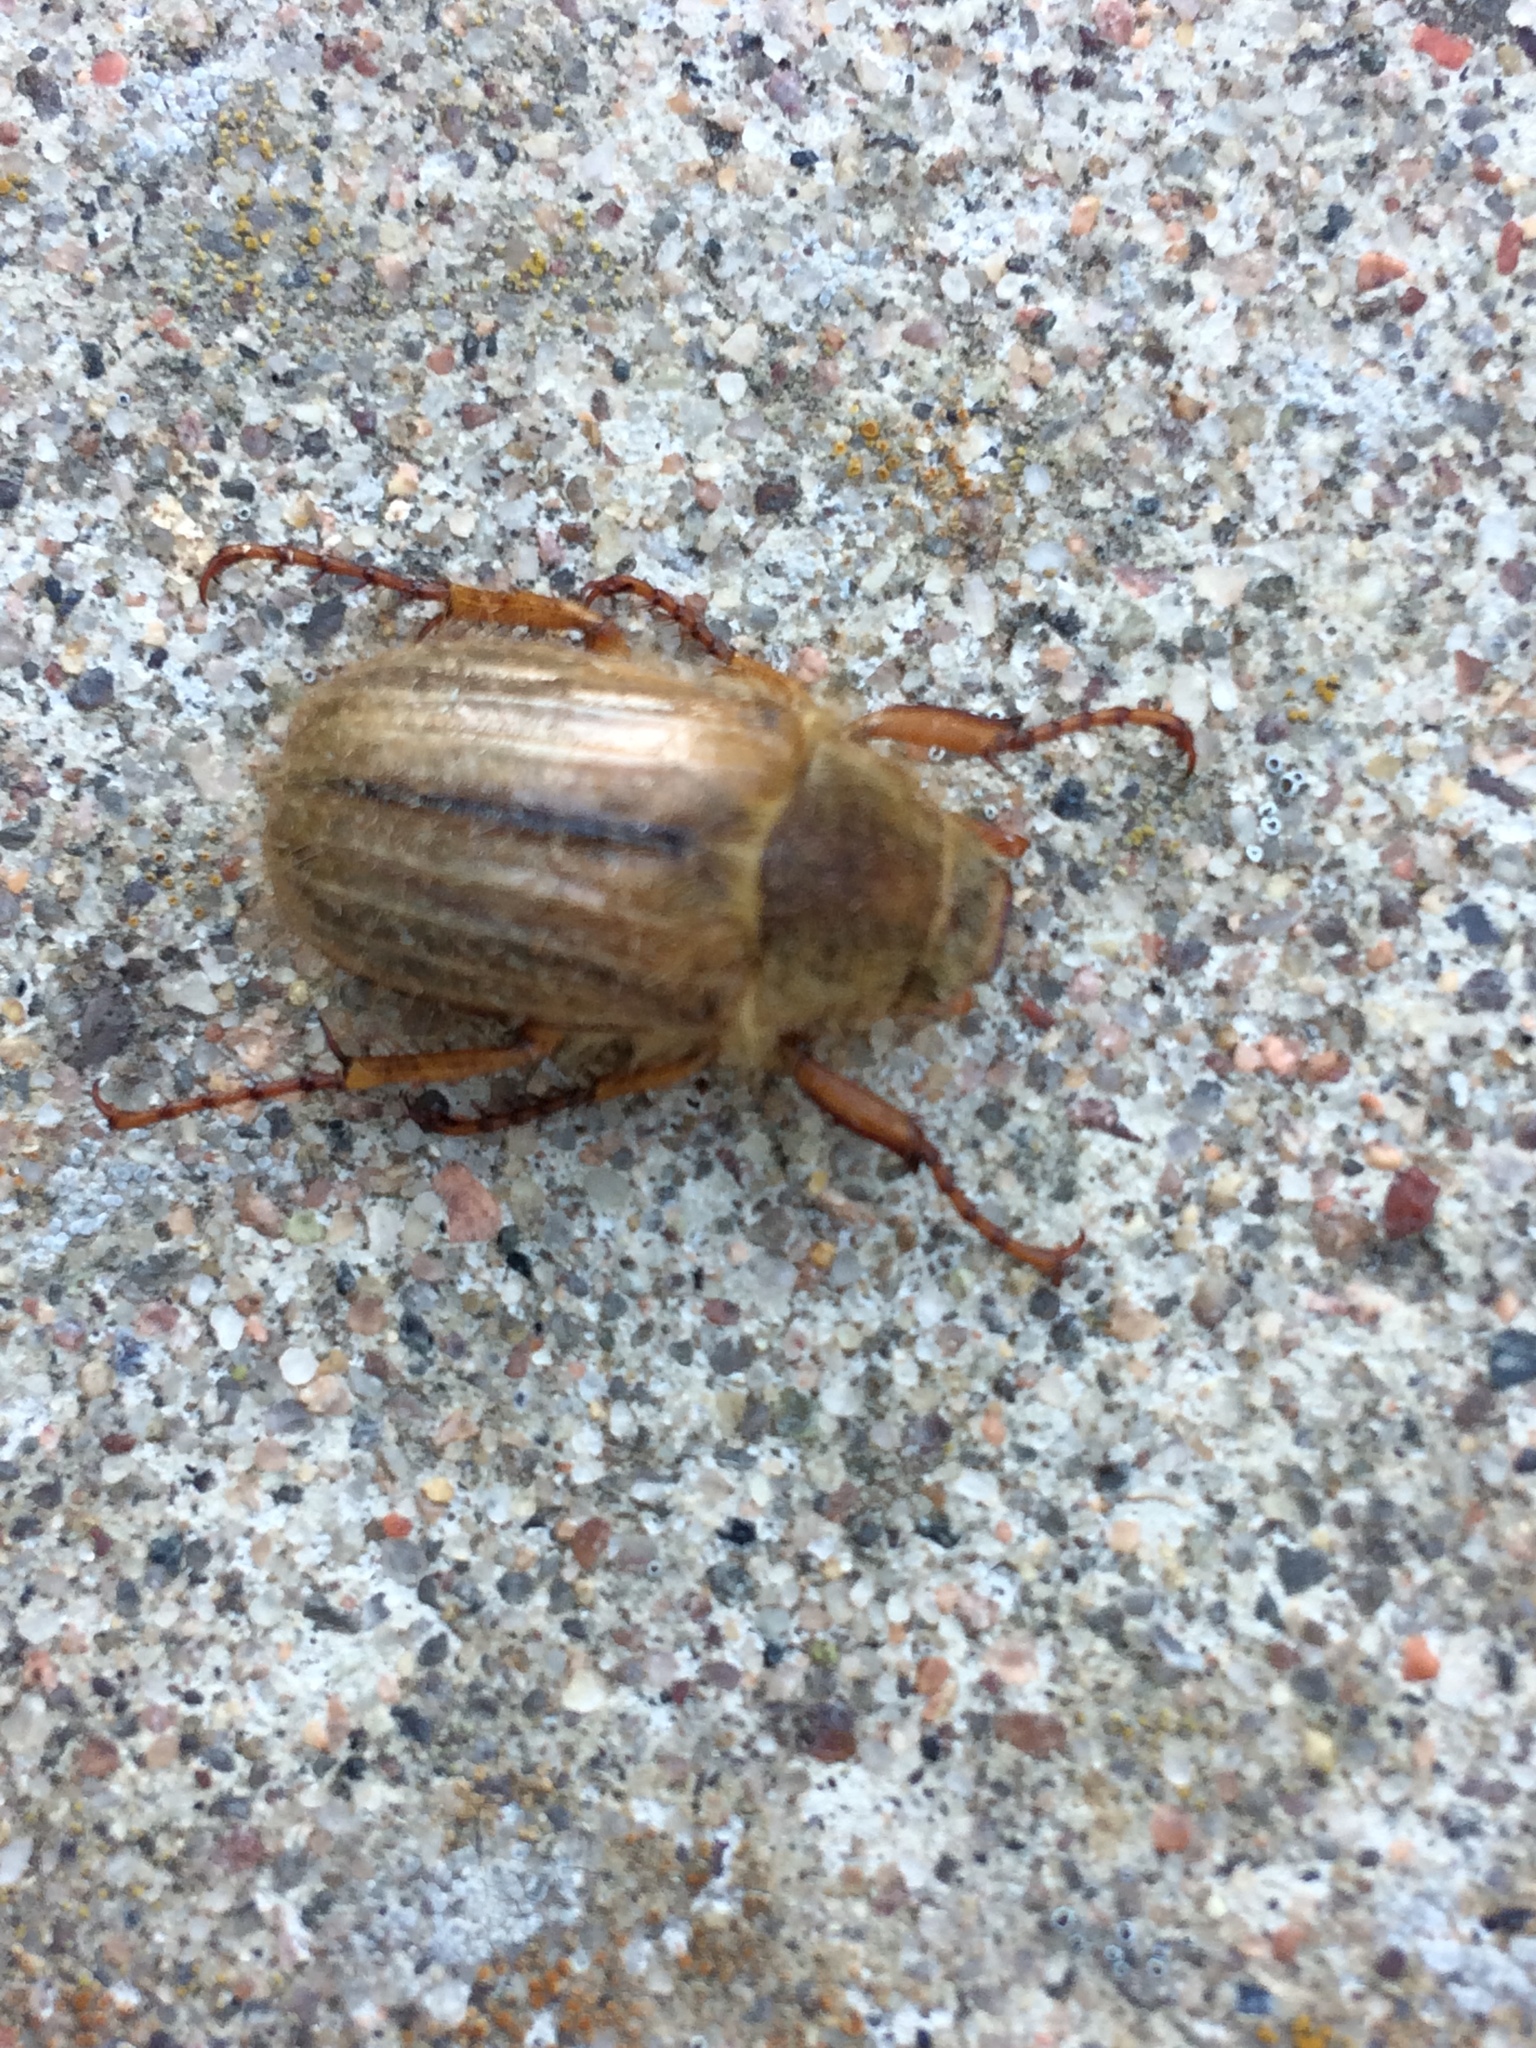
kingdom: Animalia
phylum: Arthropoda
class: Insecta
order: Coleoptera
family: Scarabaeidae
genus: Amphimallon
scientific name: Amphimallon solstitiale
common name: Summer chafer
